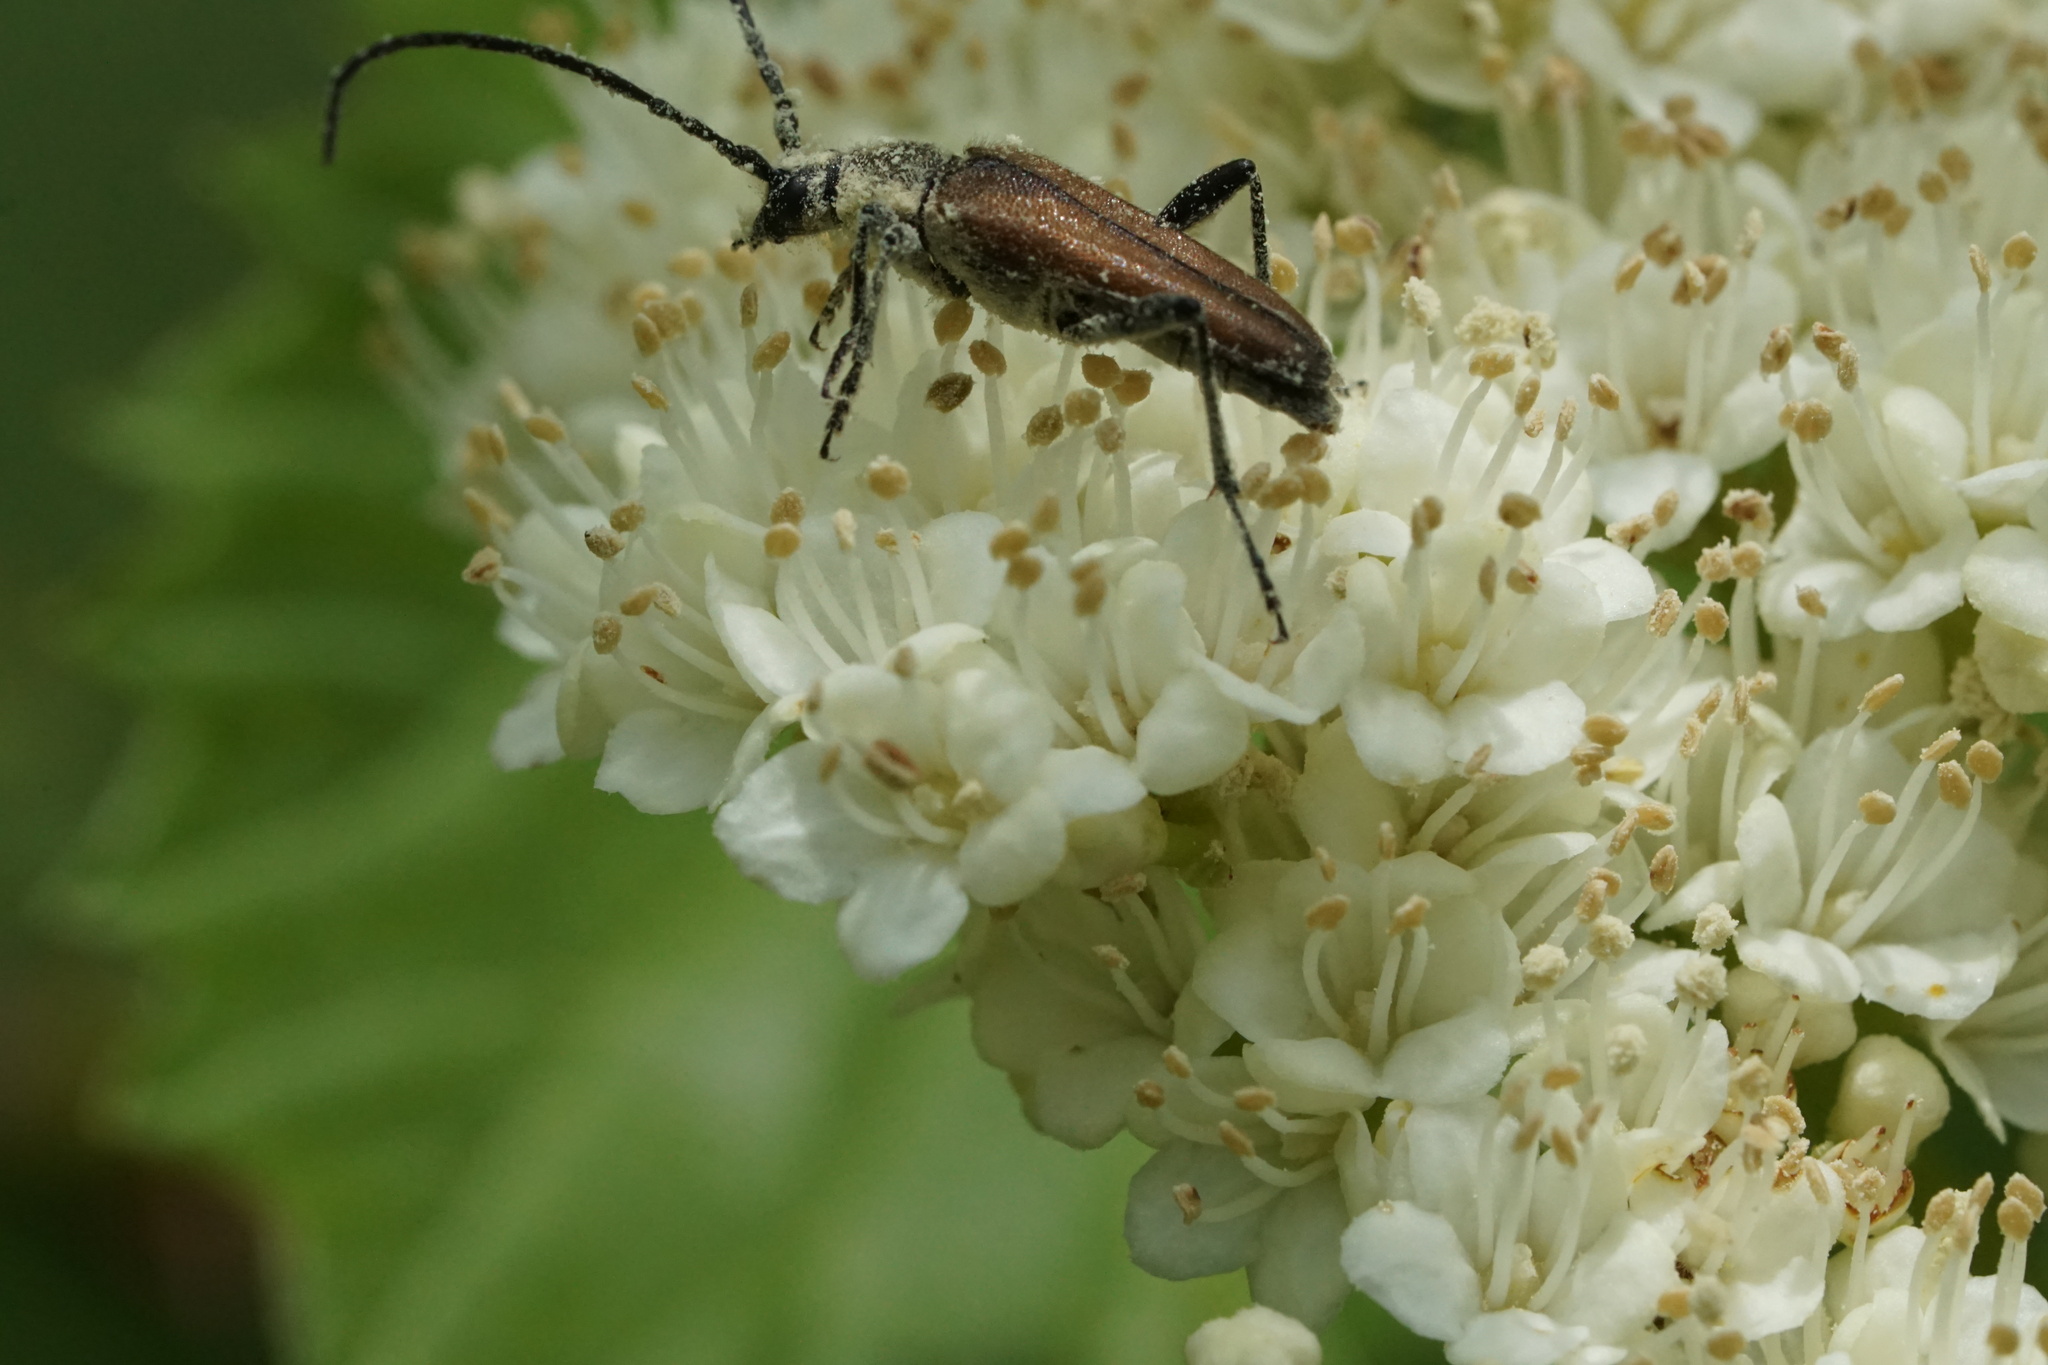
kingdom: Animalia
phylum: Arthropoda
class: Insecta
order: Coleoptera
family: Cerambycidae
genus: Trachysida
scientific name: Trachysida mutabilis
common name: Changeable flower longhorn
